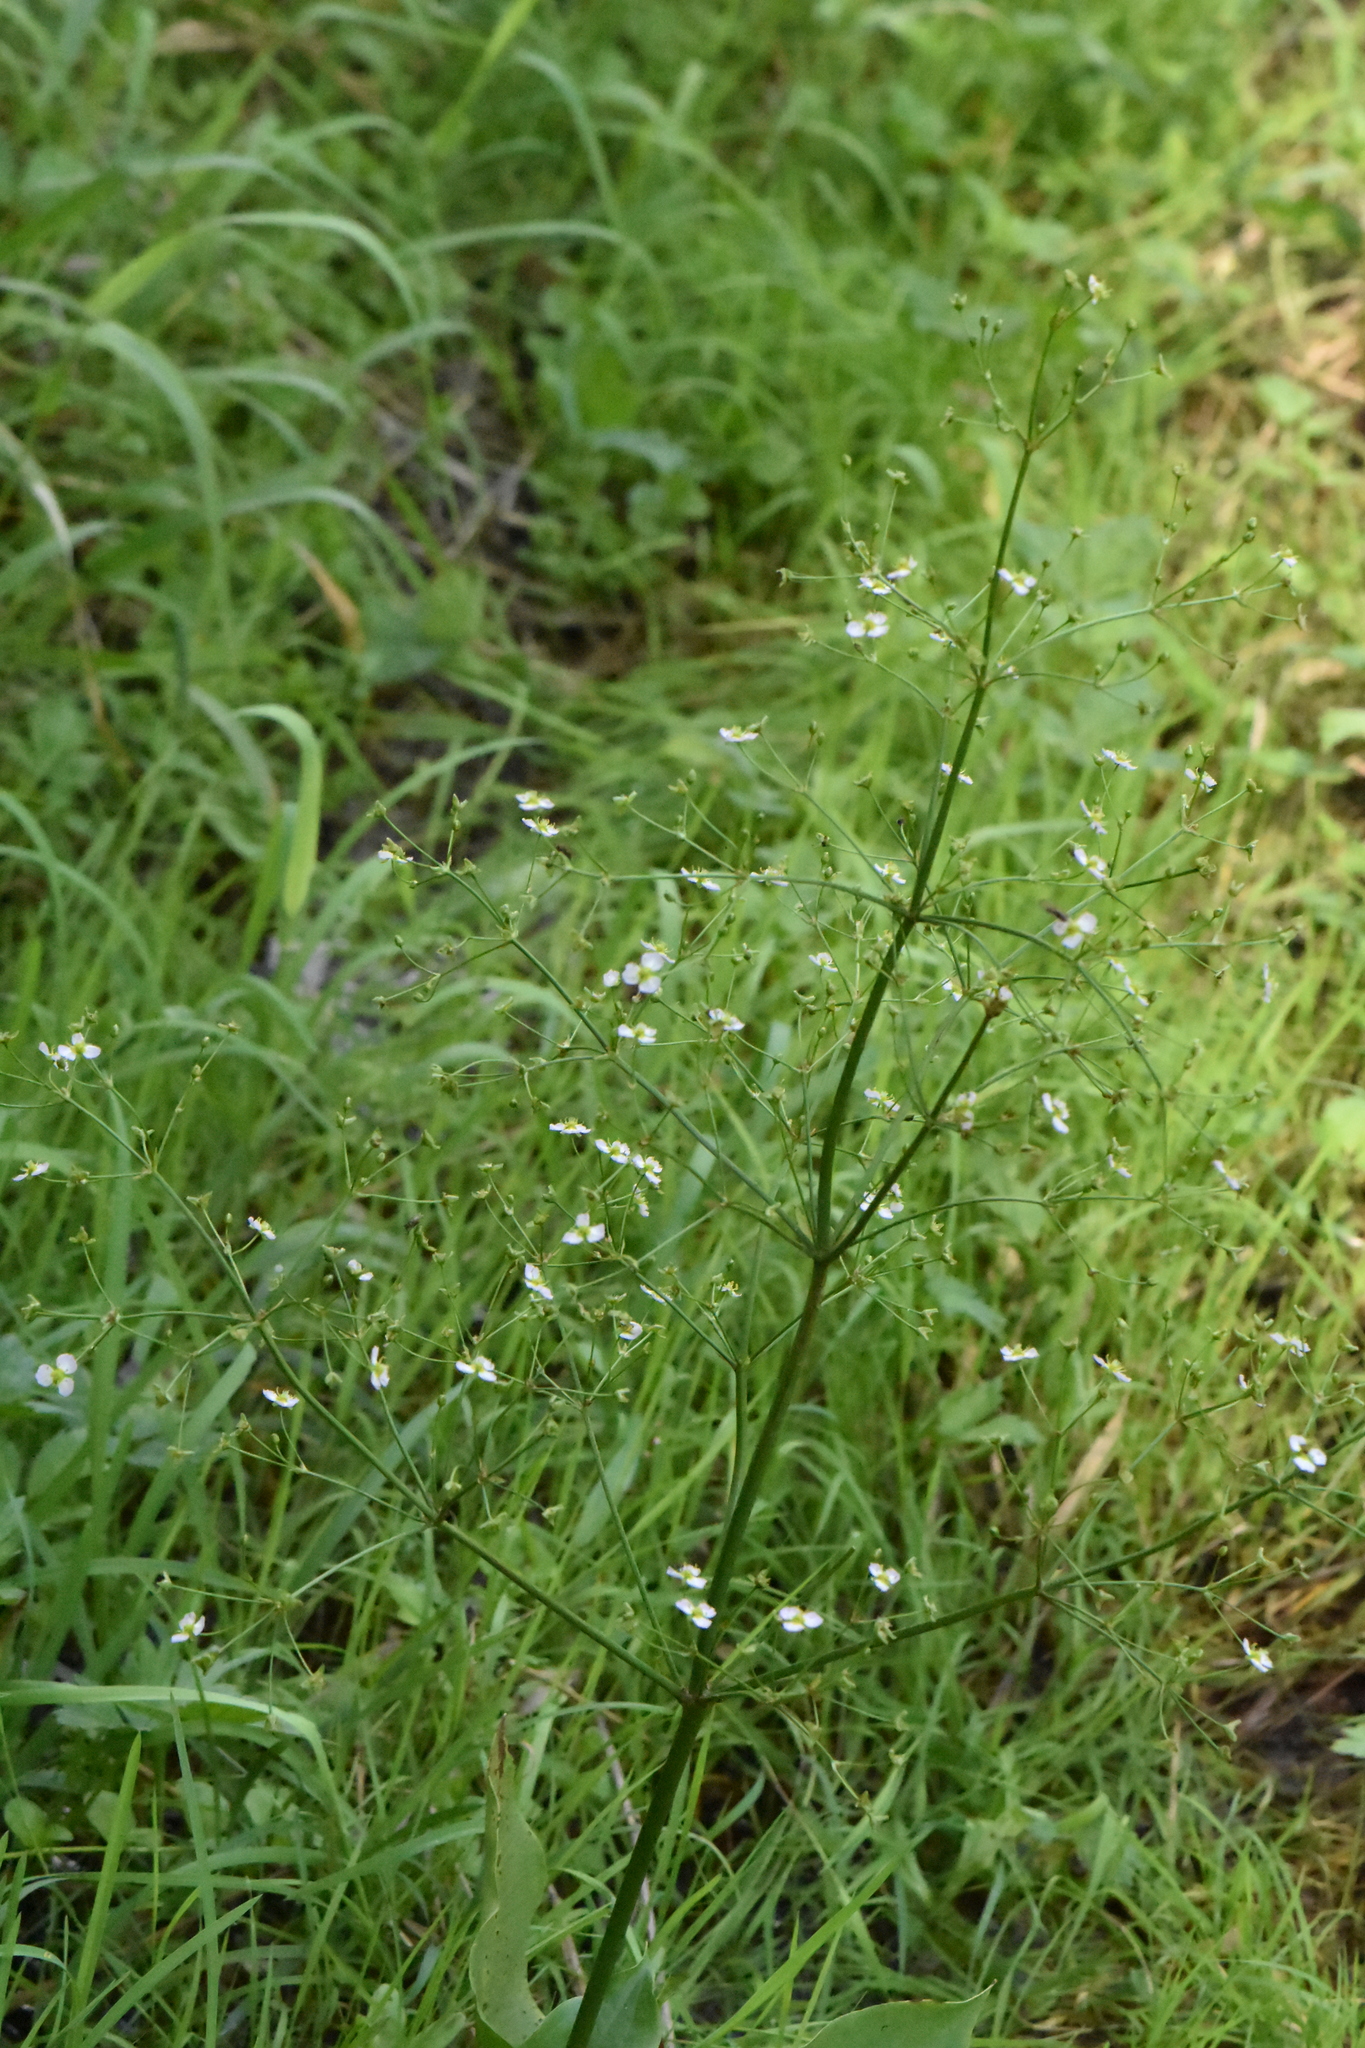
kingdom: Plantae
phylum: Tracheophyta
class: Liliopsida
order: Alismatales
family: Alismataceae
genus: Alisma
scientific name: Alisma plantago-aquatica
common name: Water-plantain
